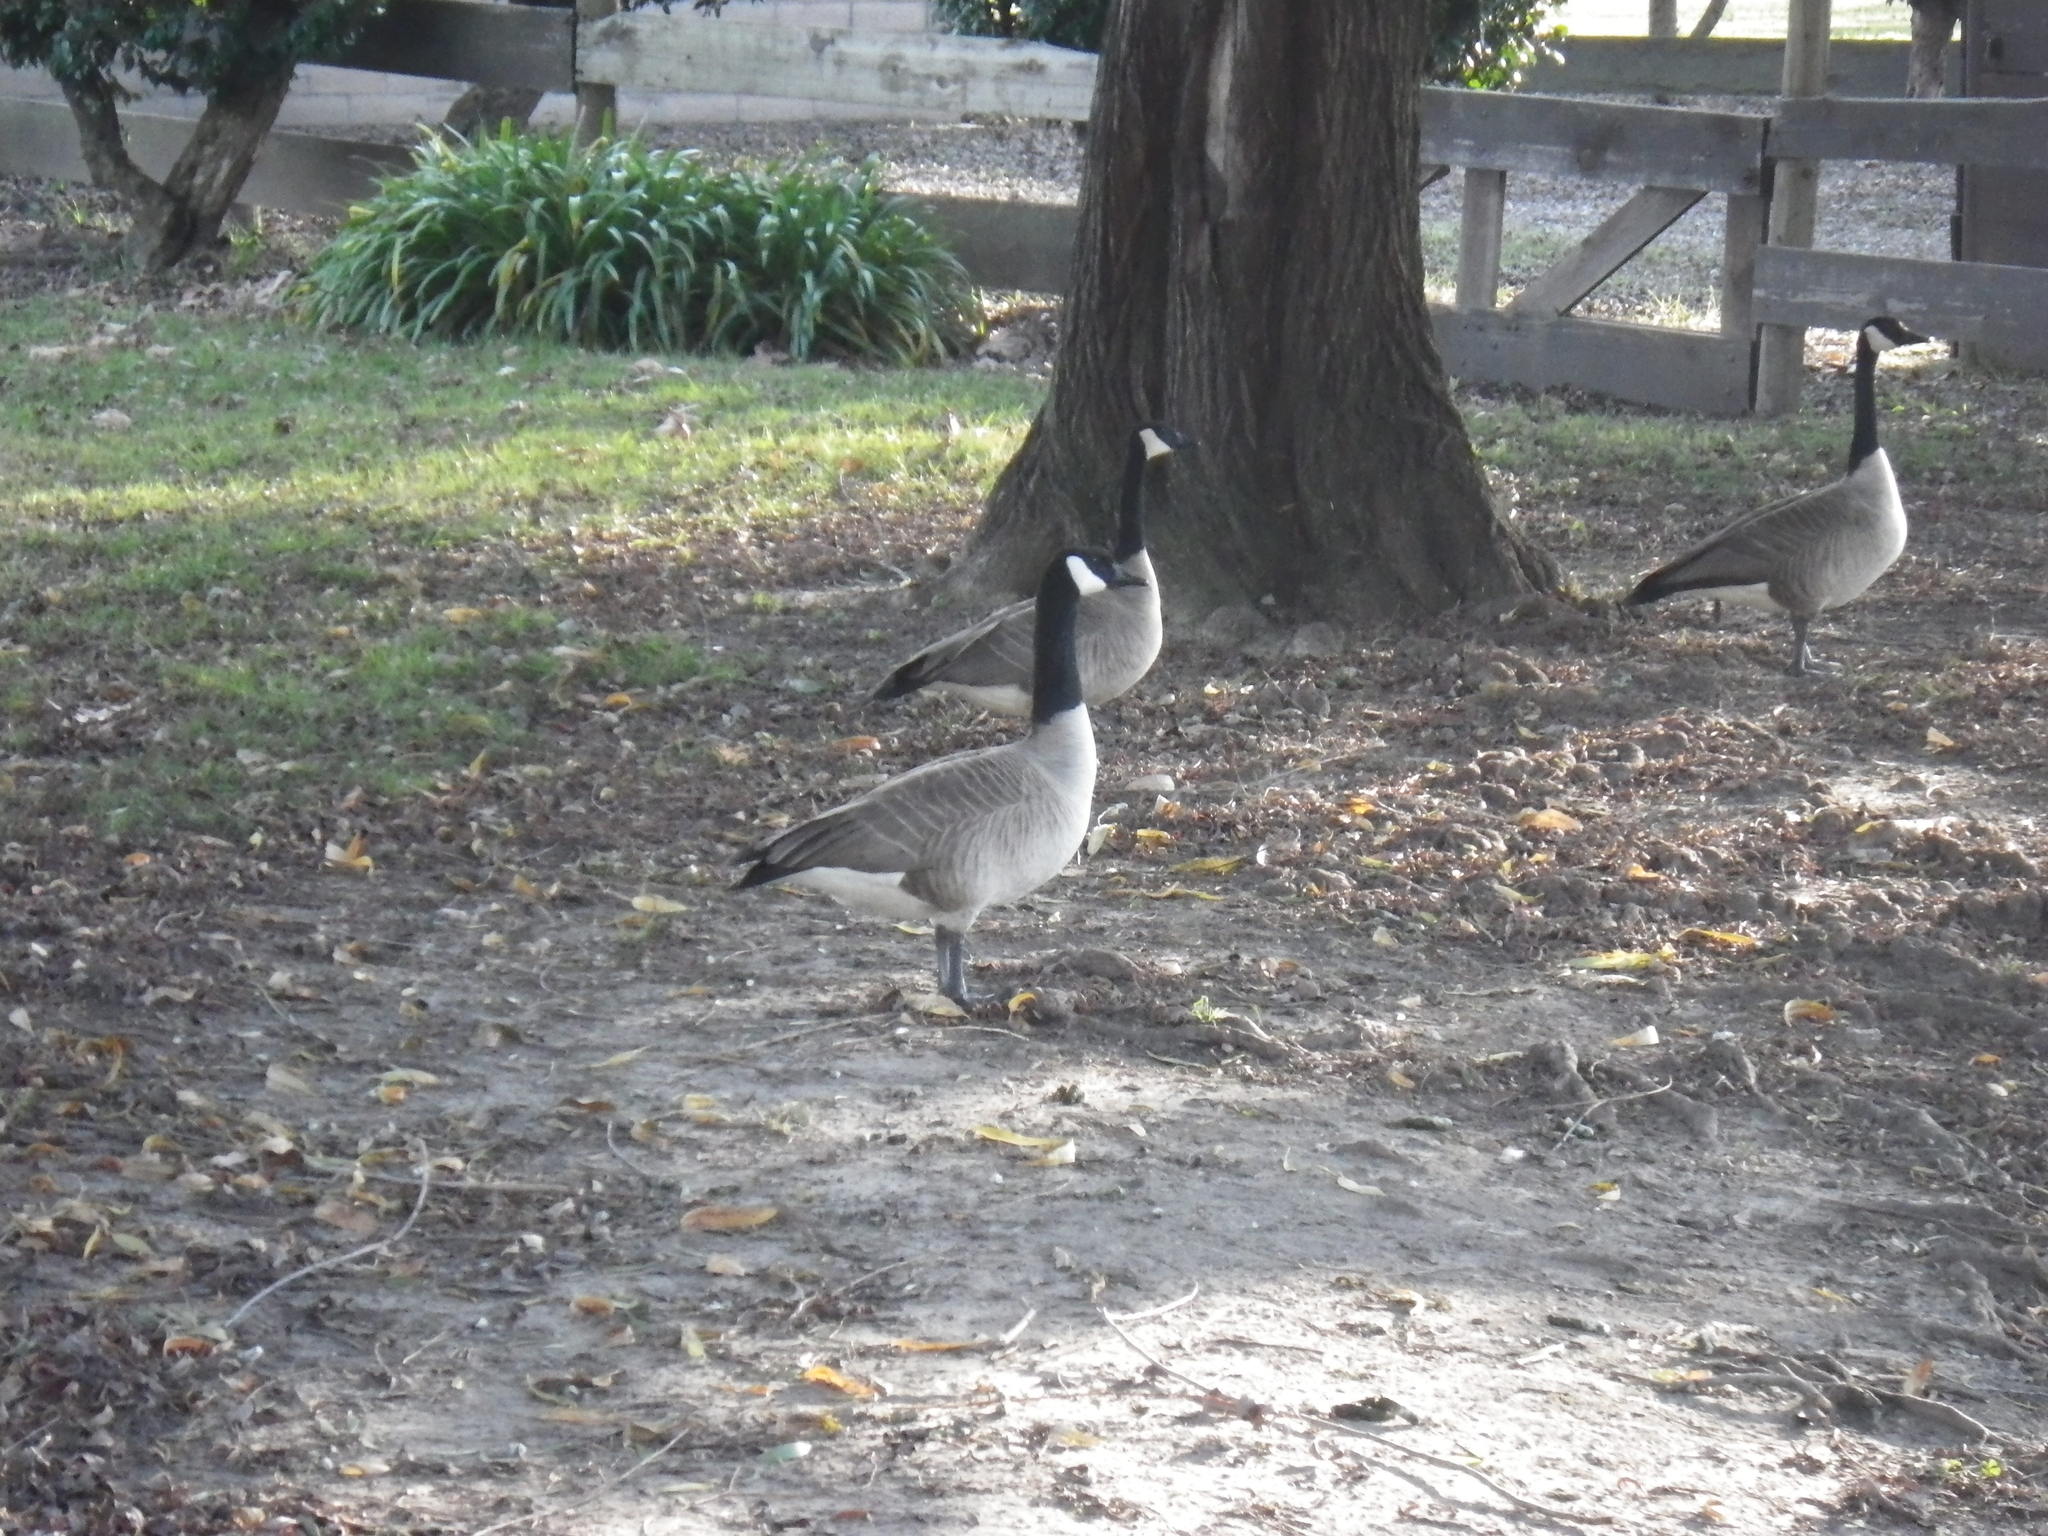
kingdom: Animalia
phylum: Chordata
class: Aves
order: Anseriformes
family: Anatidae
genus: Branta
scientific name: Branta canadensis
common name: Canada goose
